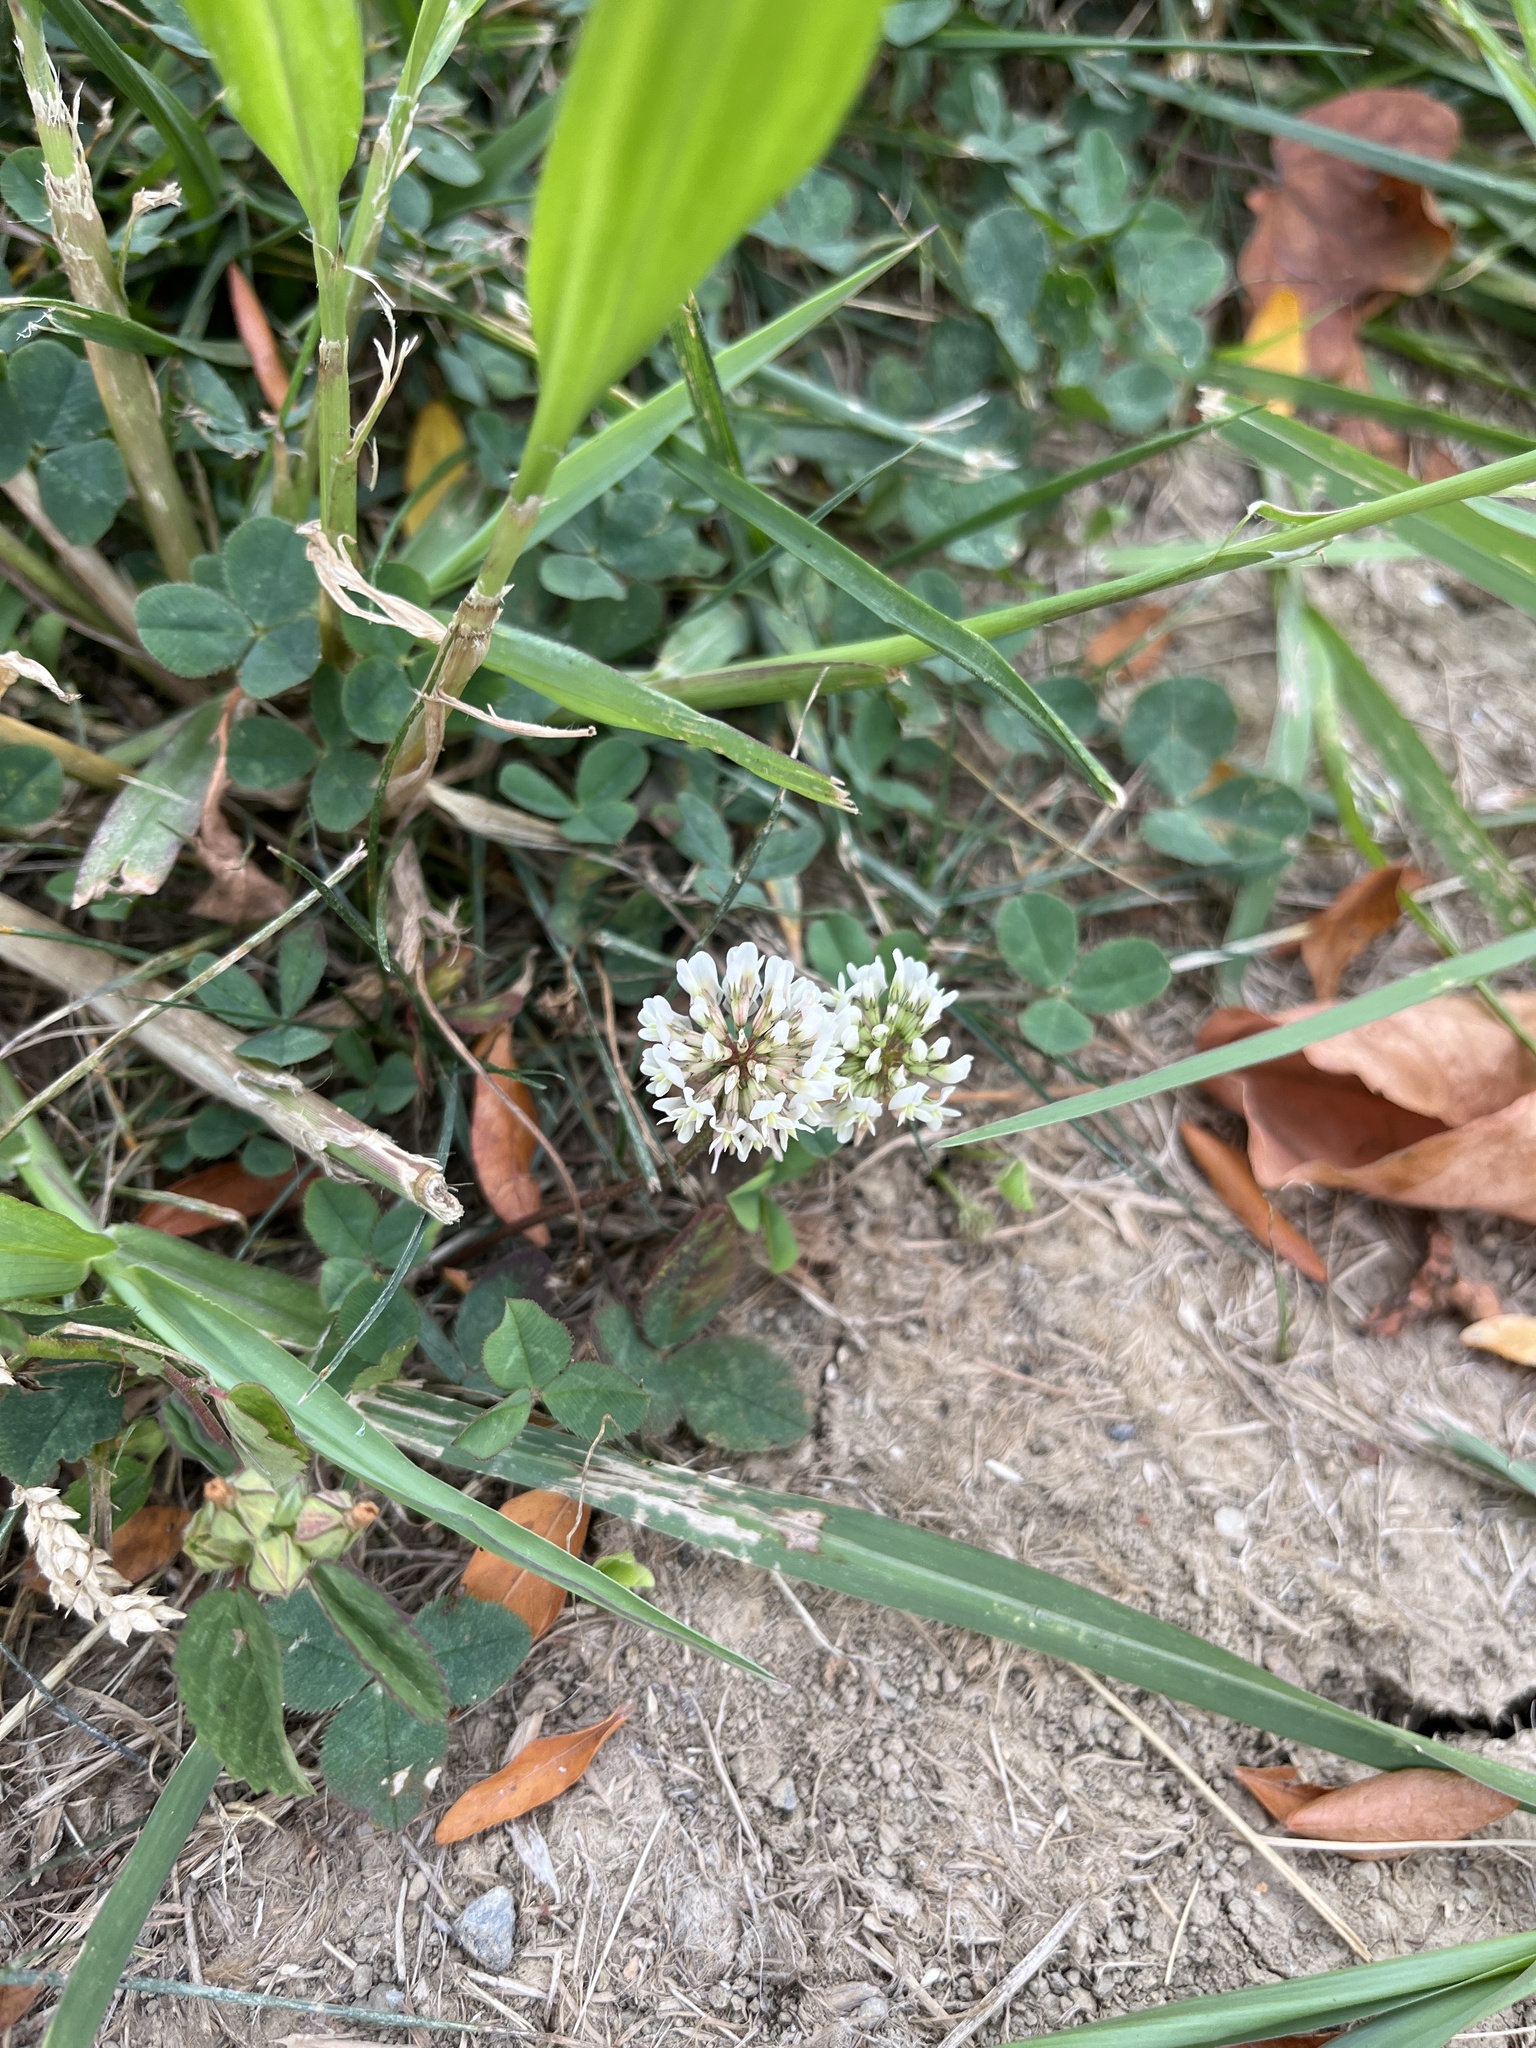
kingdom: Plantae
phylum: Tracheophyta
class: Magnoliopsida
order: Fabales
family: Fabaceae
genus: Trifolium
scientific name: Trifolium repens
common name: White clover
